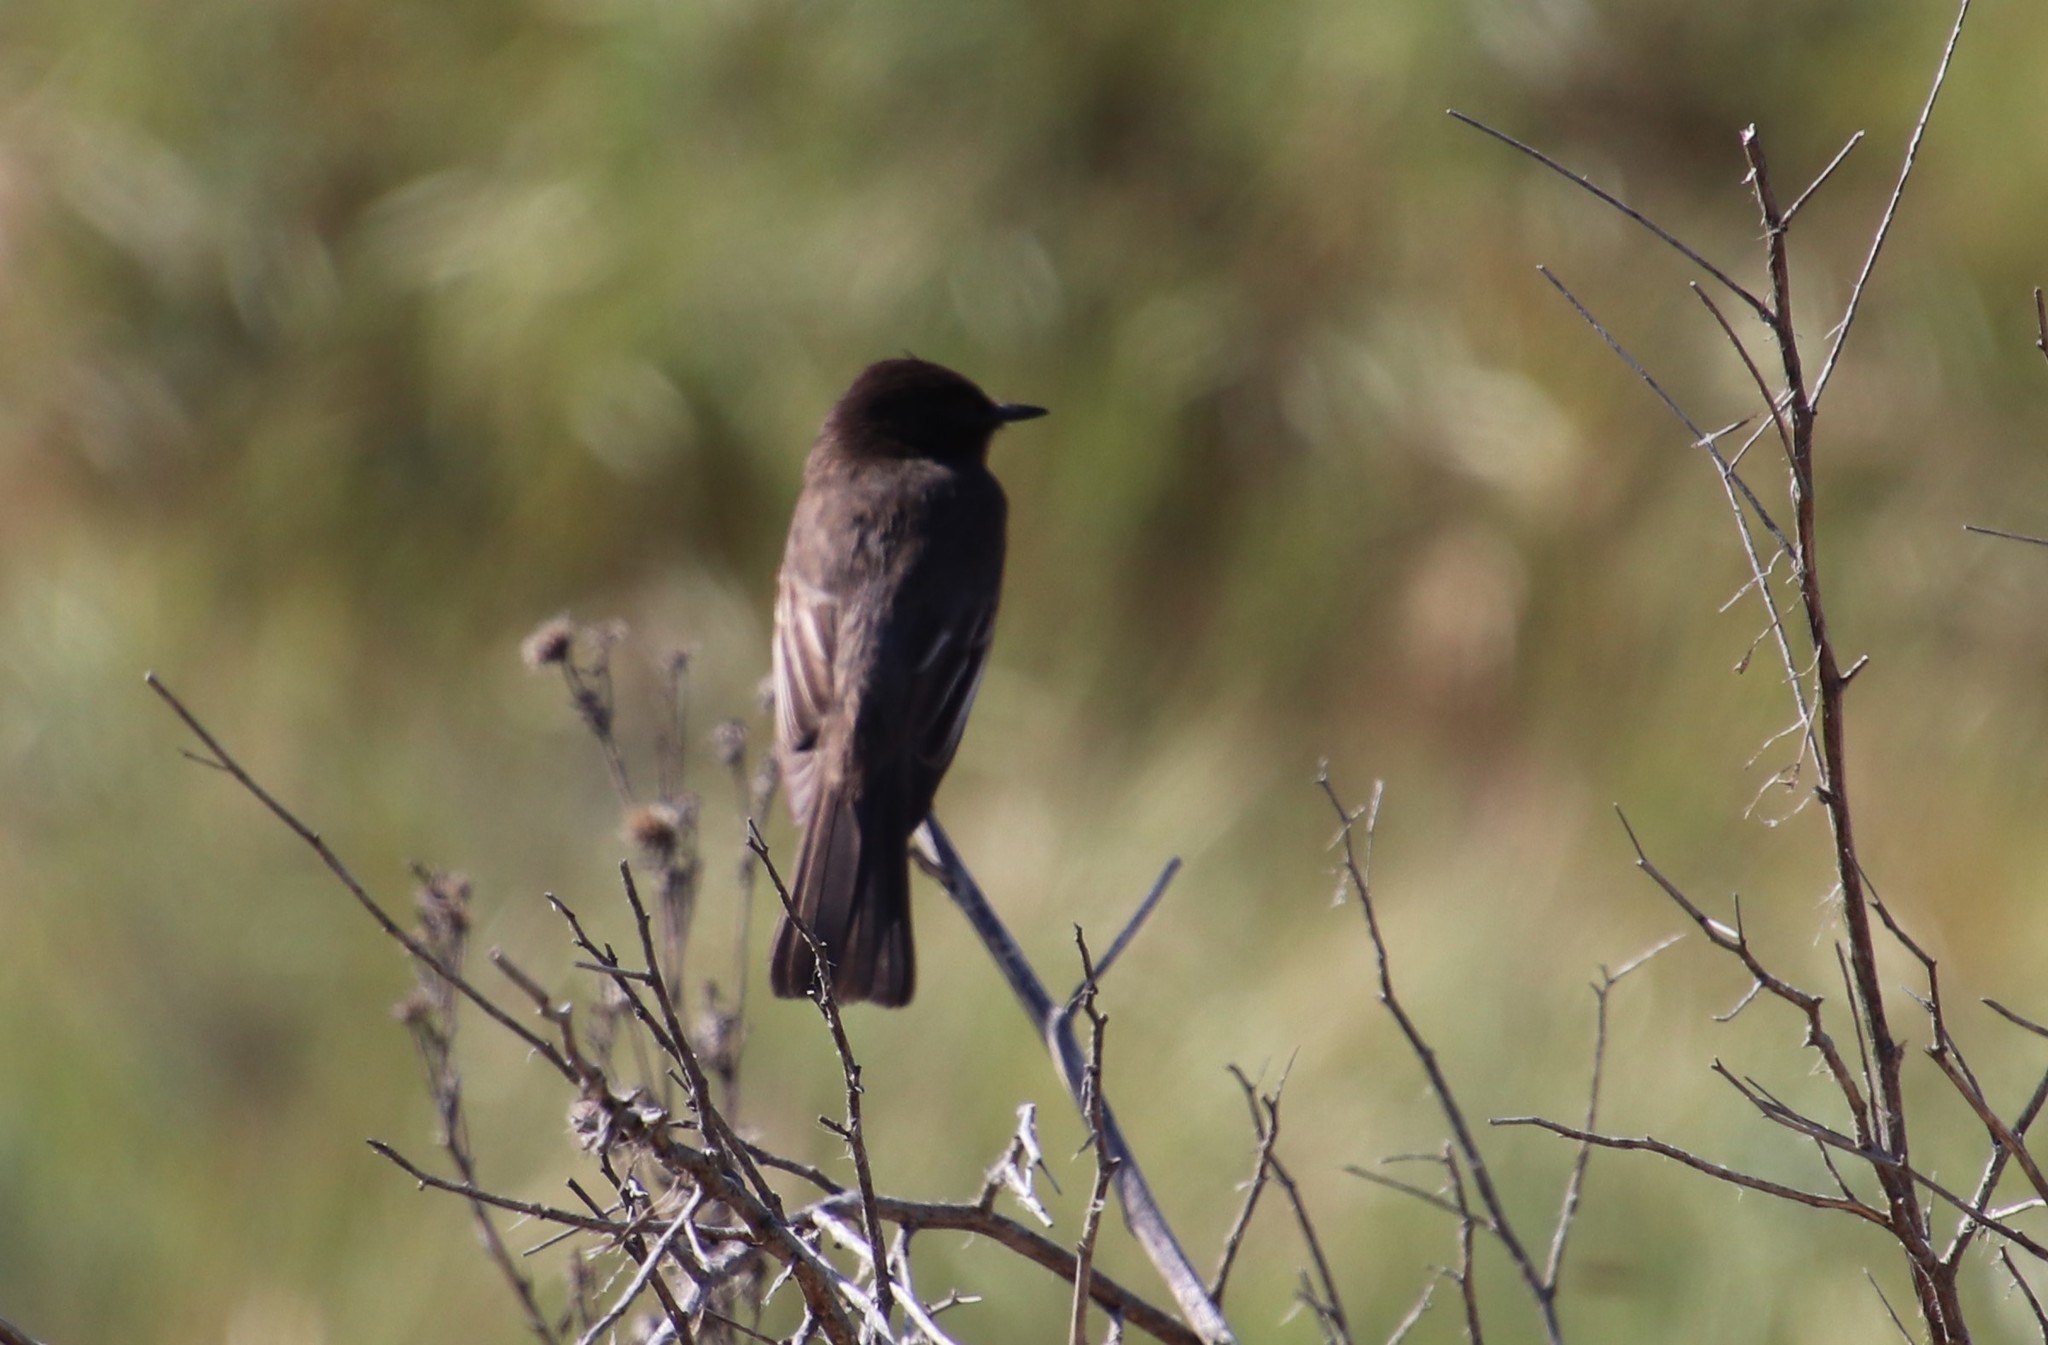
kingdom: Animalia
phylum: Chordata
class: Aves
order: Passeriformes
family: Tyrannidae
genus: Sayornis
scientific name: Sayornis nigricans
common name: Black phoebe
